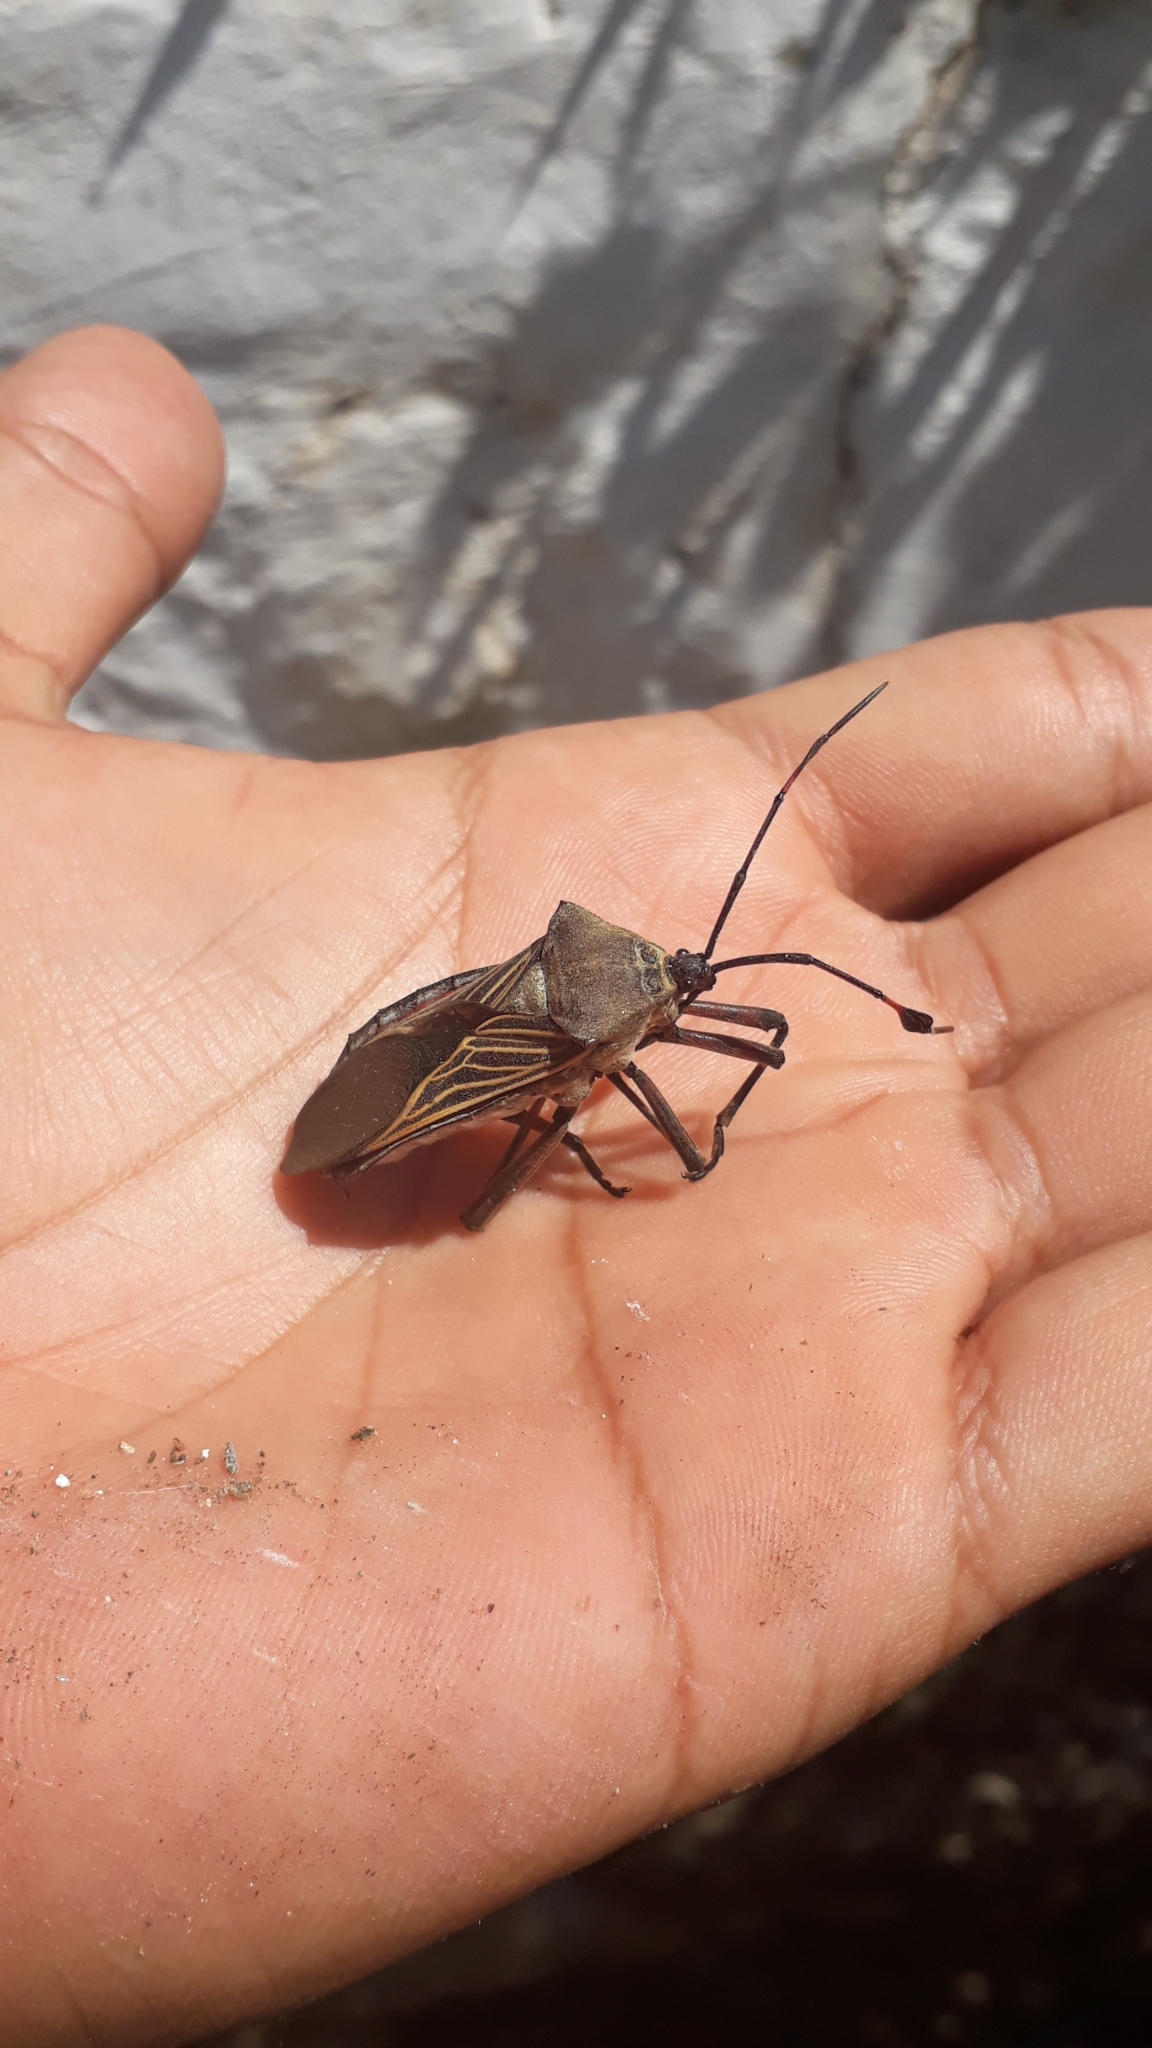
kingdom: Animalia
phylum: Arthropoda
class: Insecta
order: Hemiptera
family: Coreidae
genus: Thasus
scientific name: Thasus
